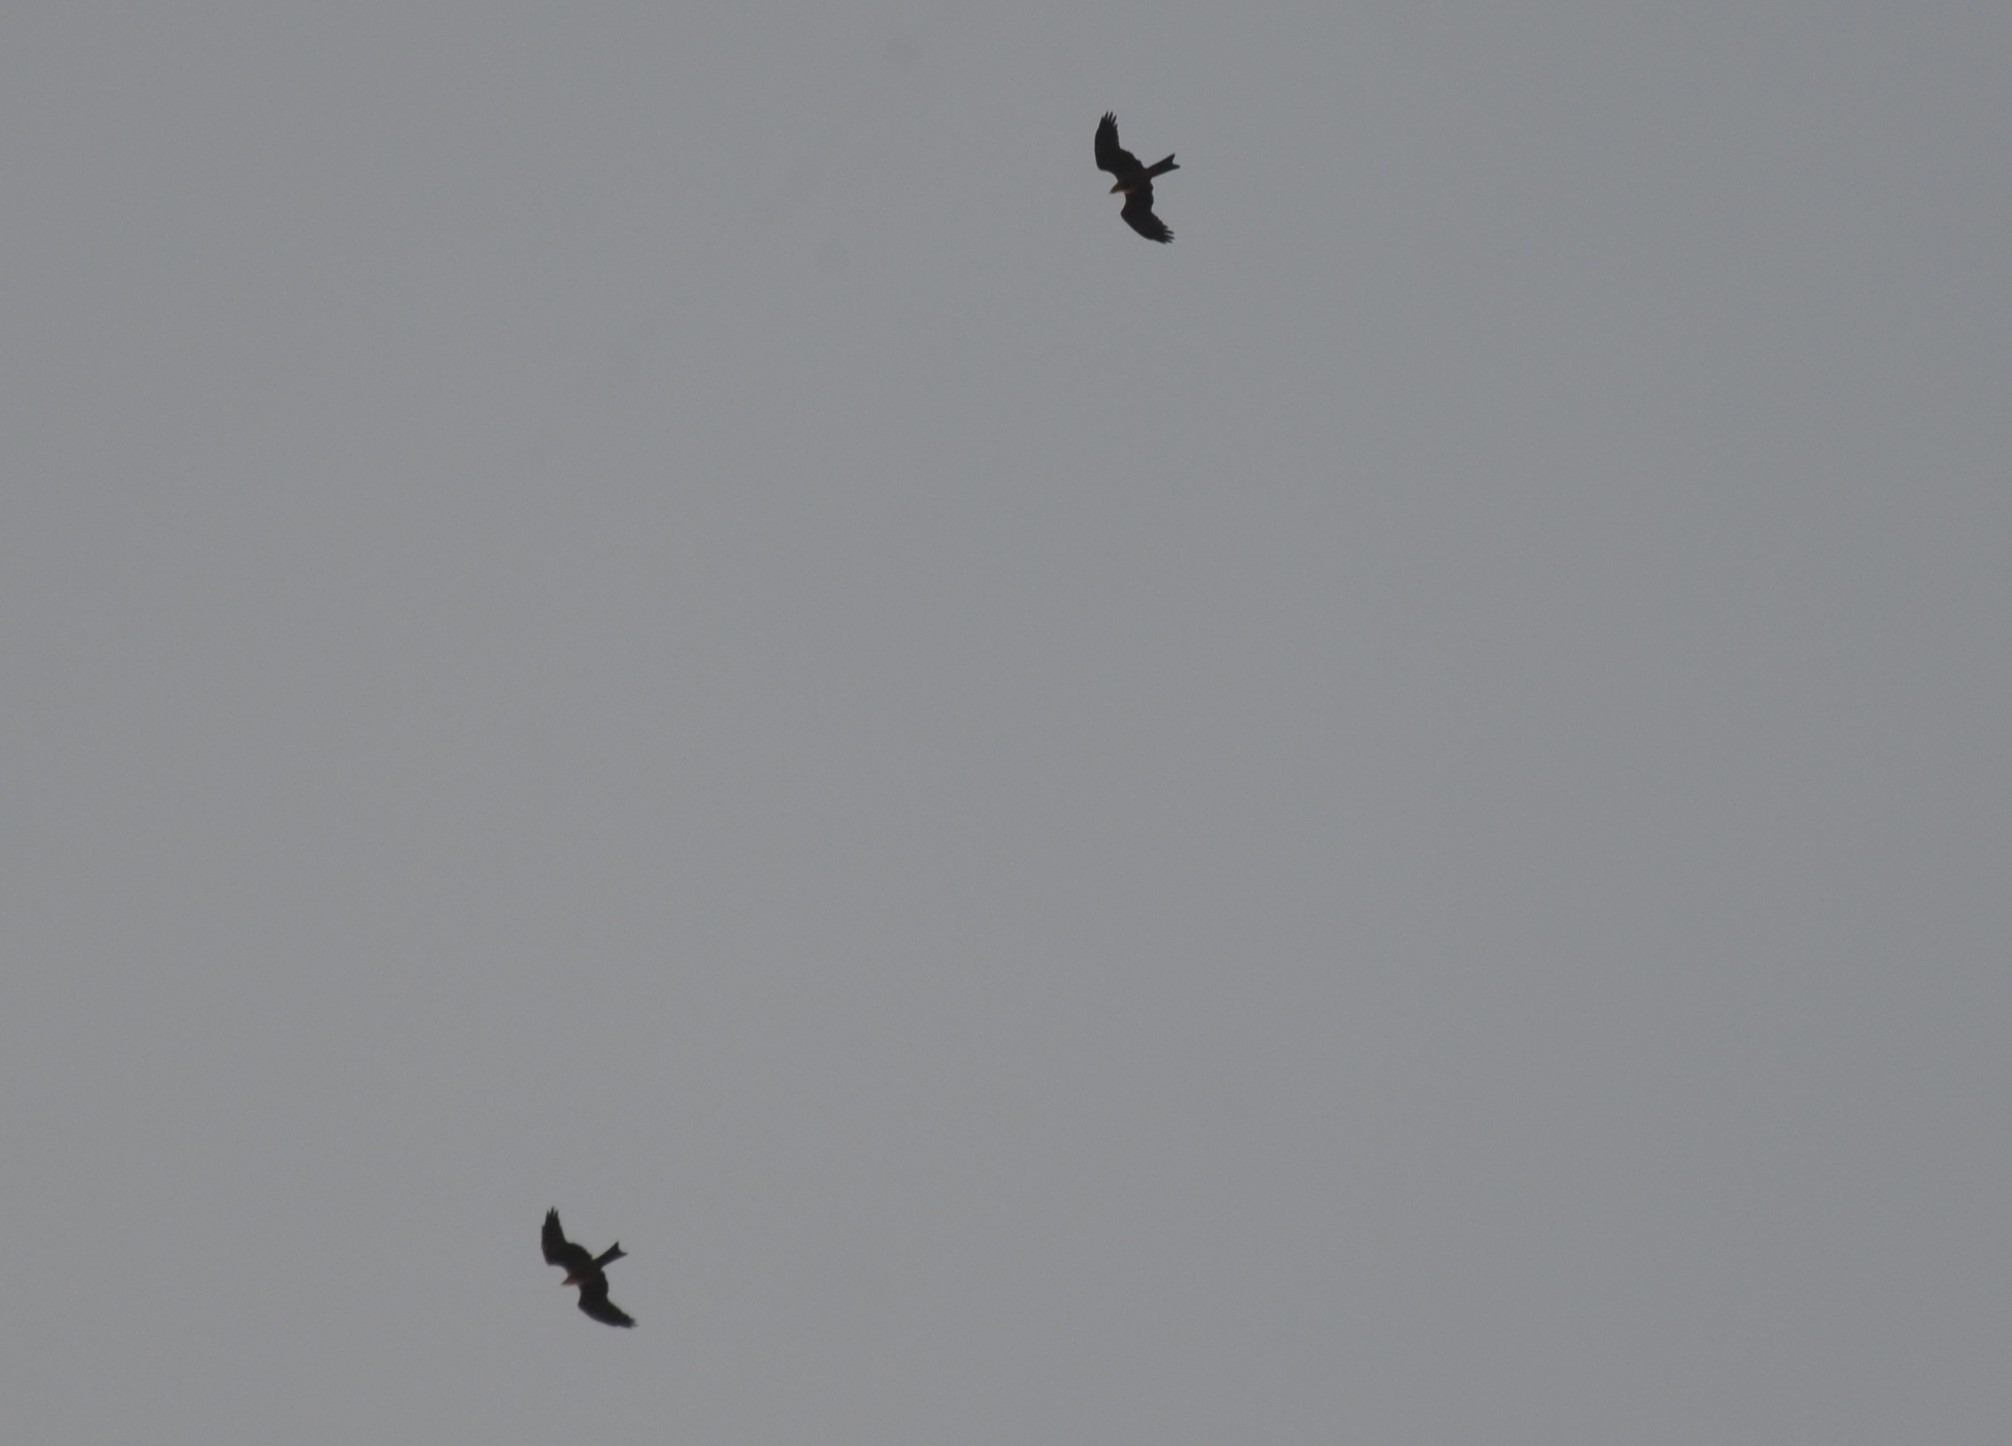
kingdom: Animalia
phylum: Chordata
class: Aves
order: Accipitriformes
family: Accipitridae
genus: Milvus
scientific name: Milvus migrans
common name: Black kite
